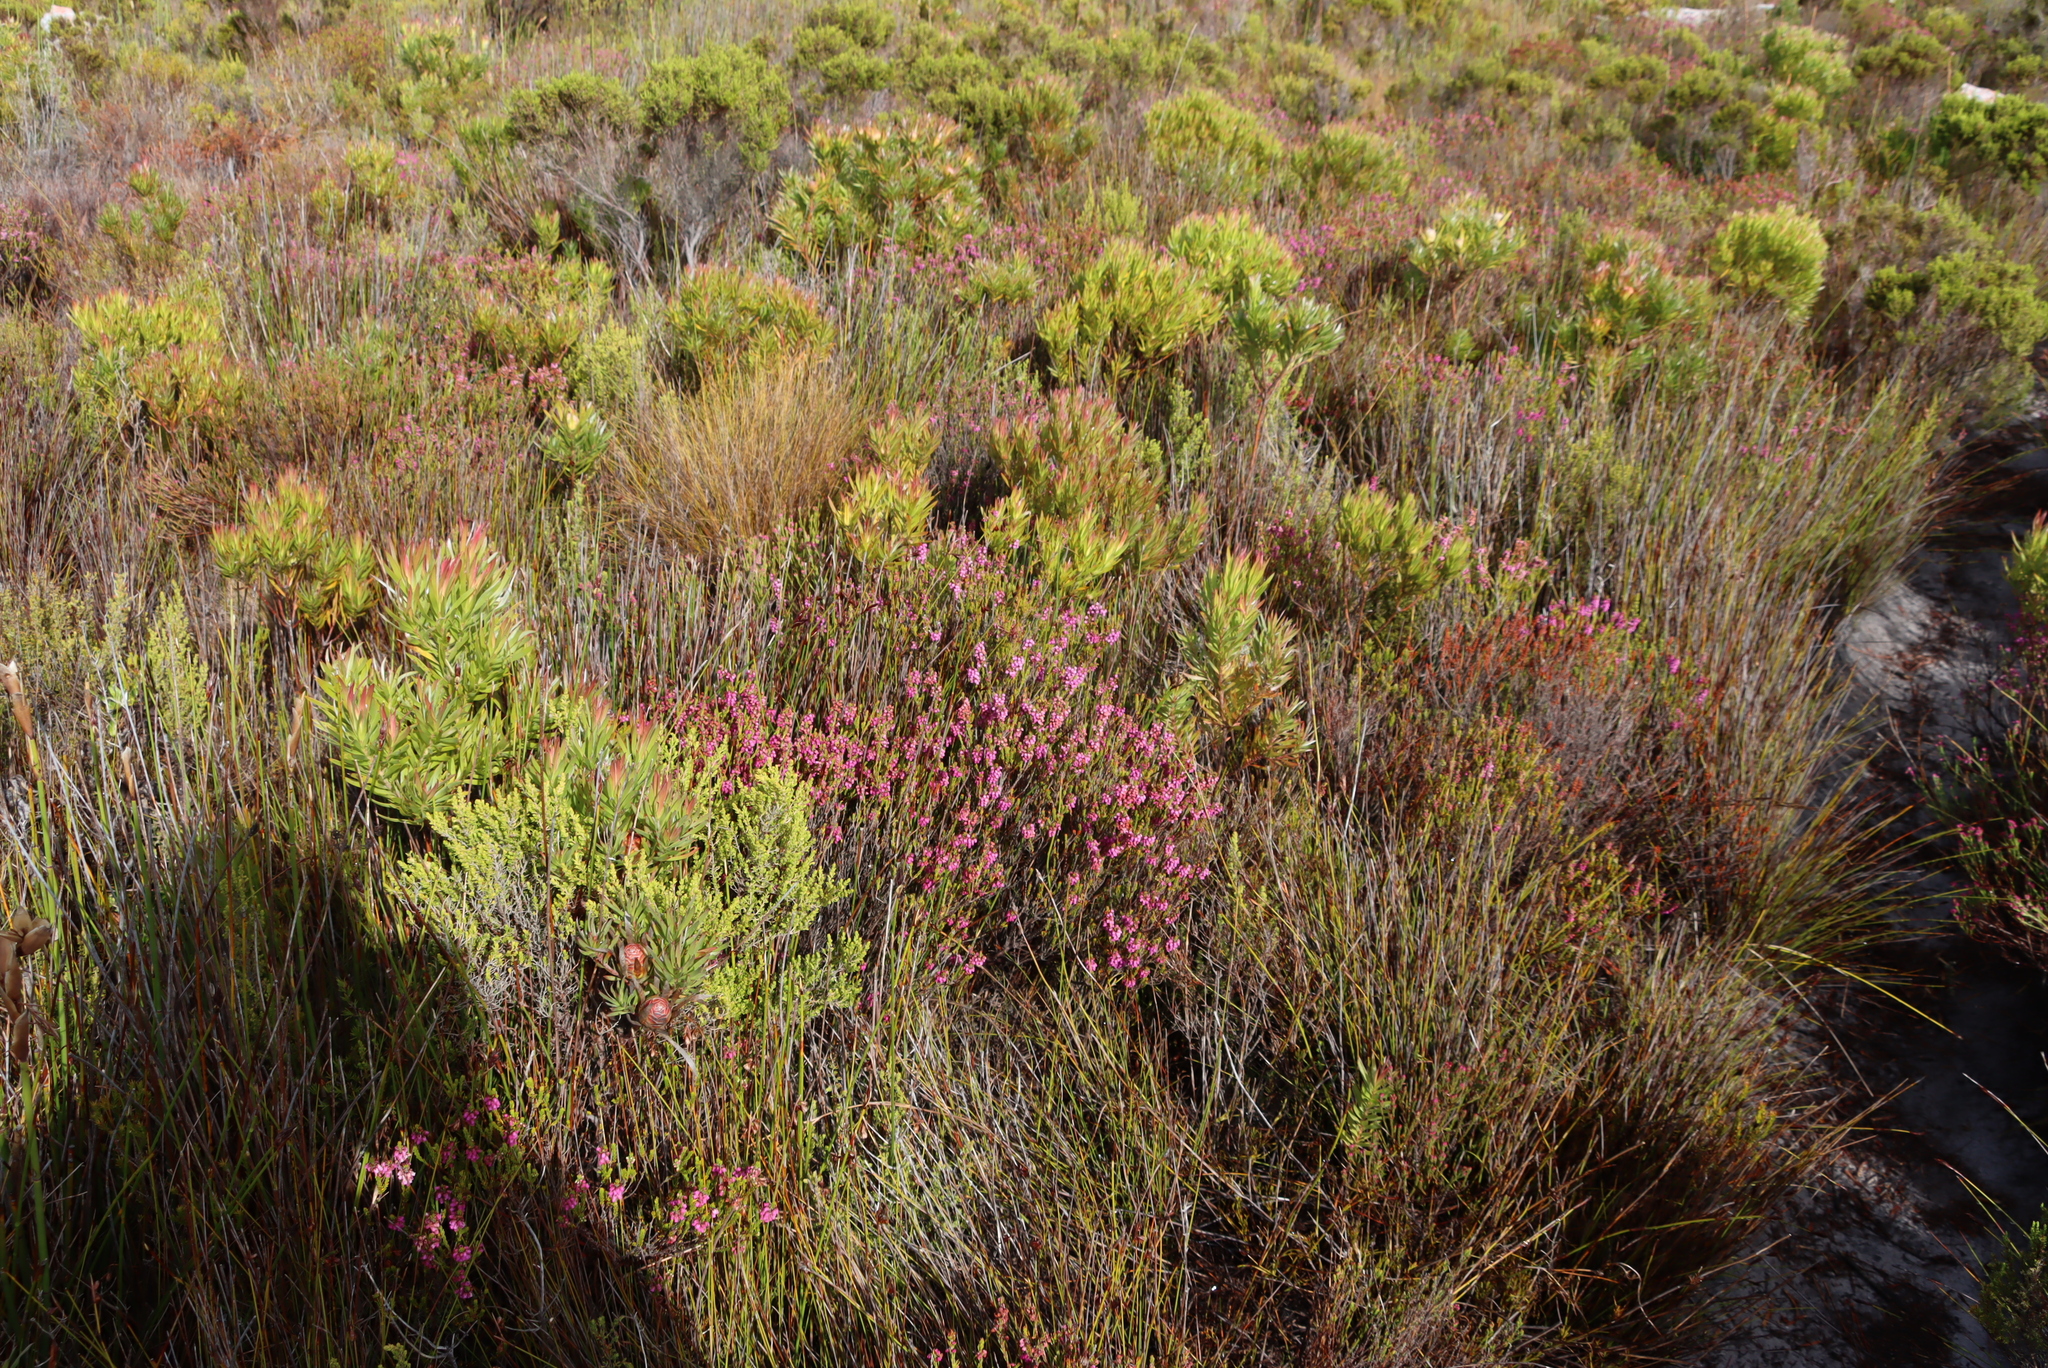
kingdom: Plantae
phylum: Tracheophyta
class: Magnoliopsida
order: Ericales
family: Ericaceae
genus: Erica
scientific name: Erica pulchella
